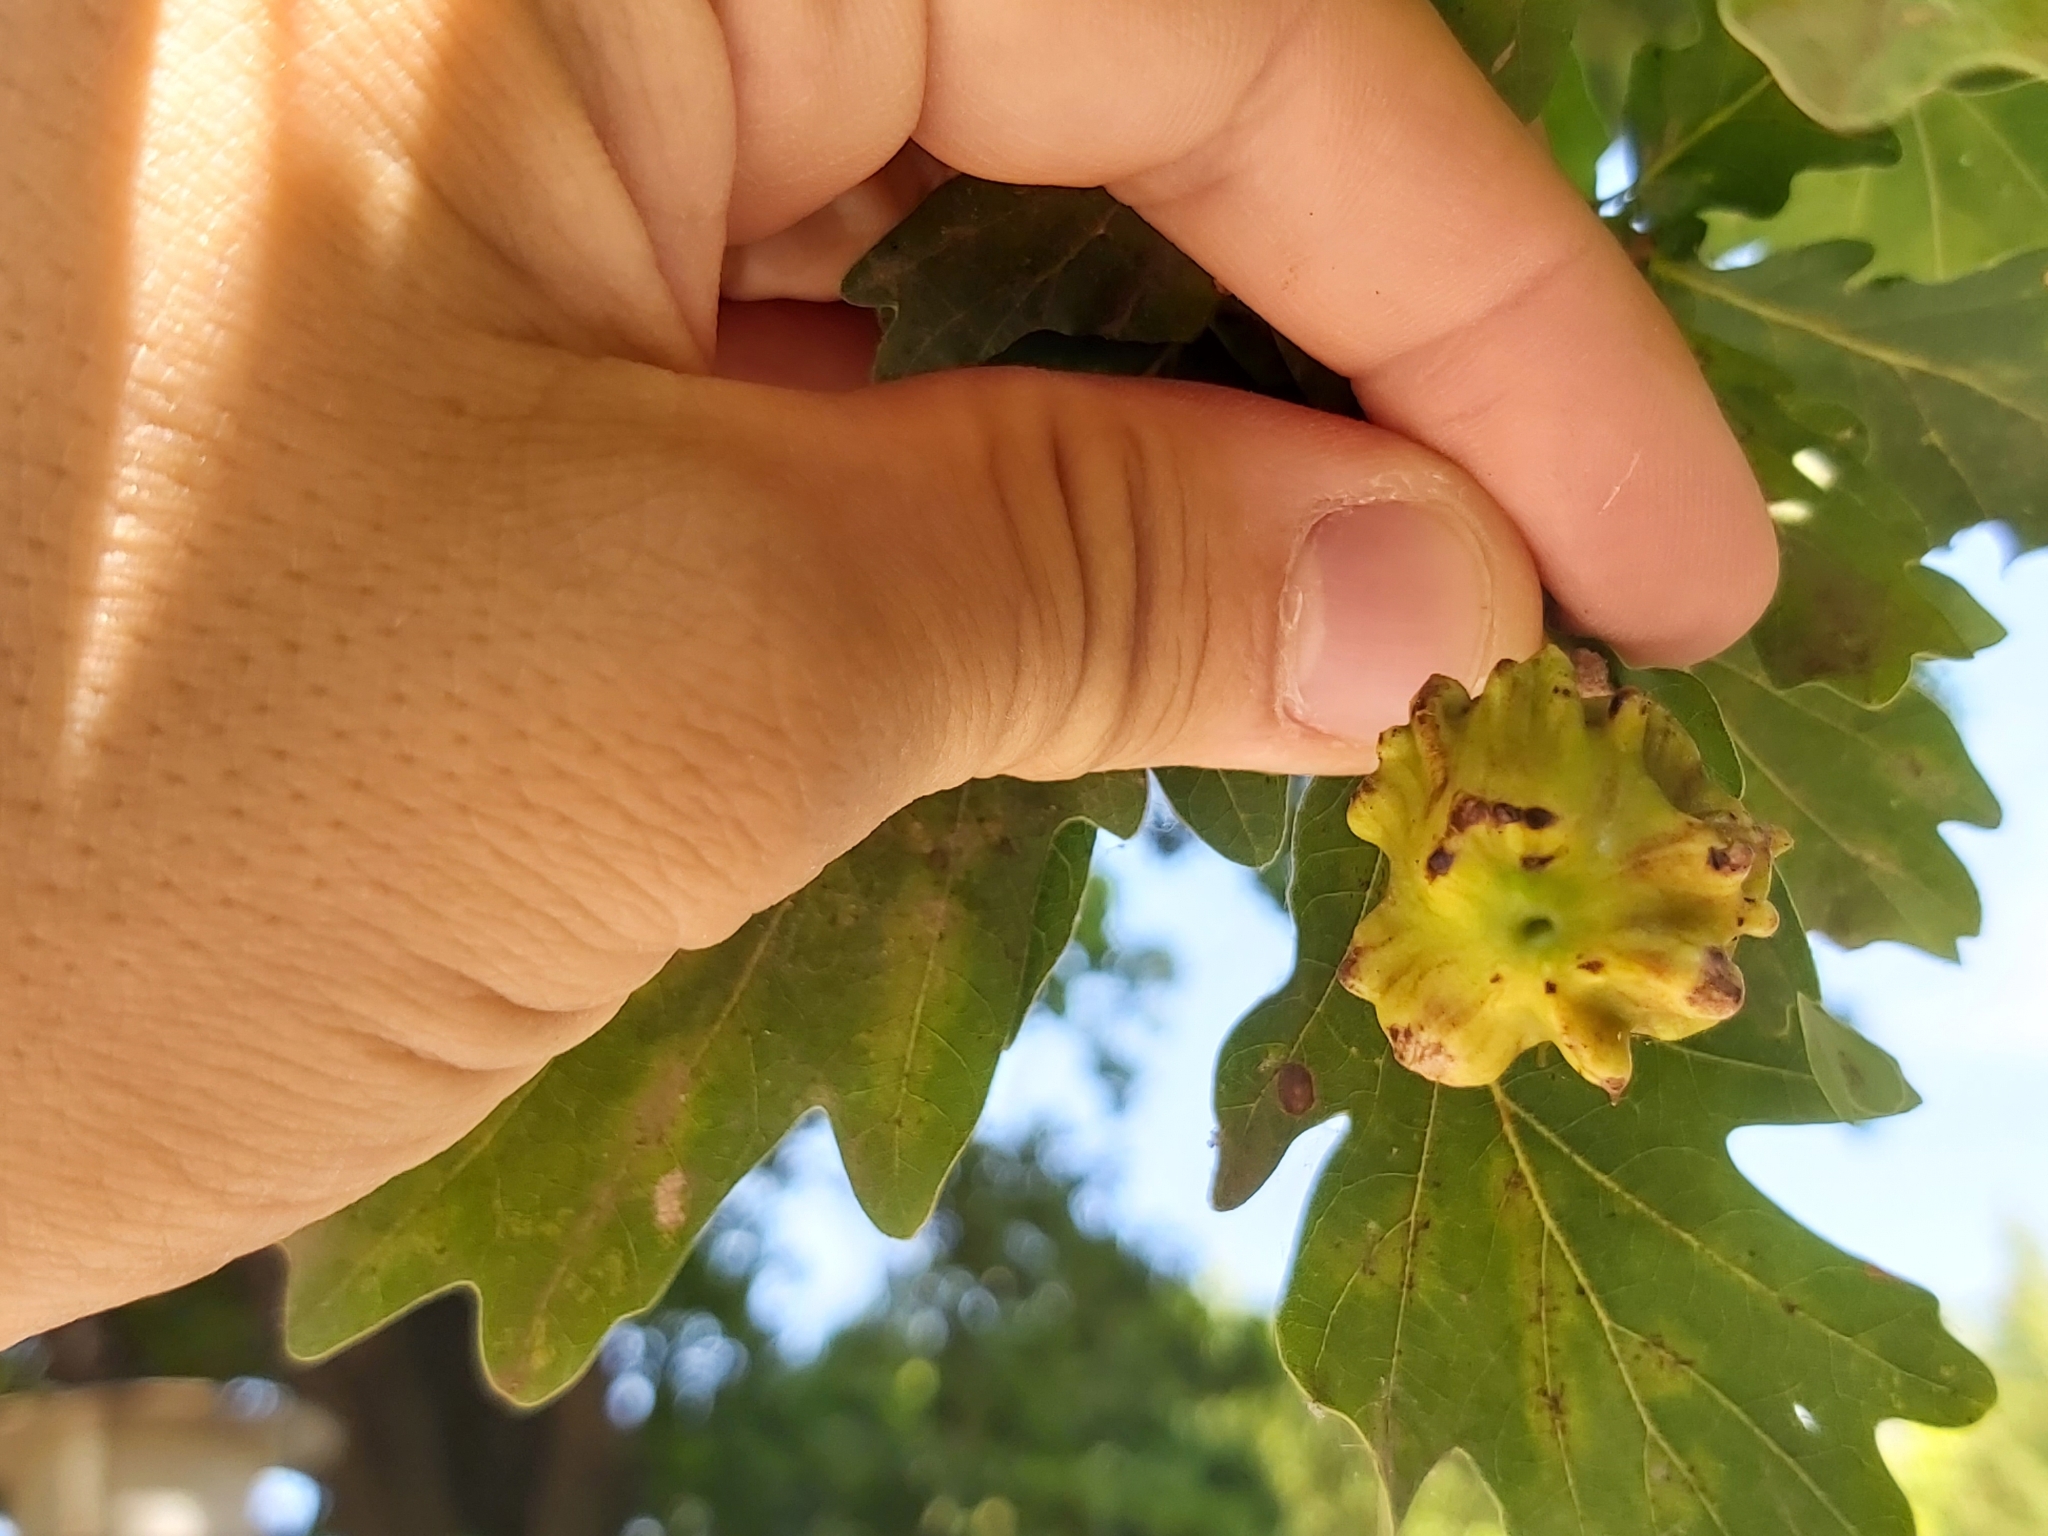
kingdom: Animalia
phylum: Arthropoda
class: Insecta
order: Hymenoptera
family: Cynipidae
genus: Andricus
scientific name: Andricus quercuscalicis
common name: Knopper gall
